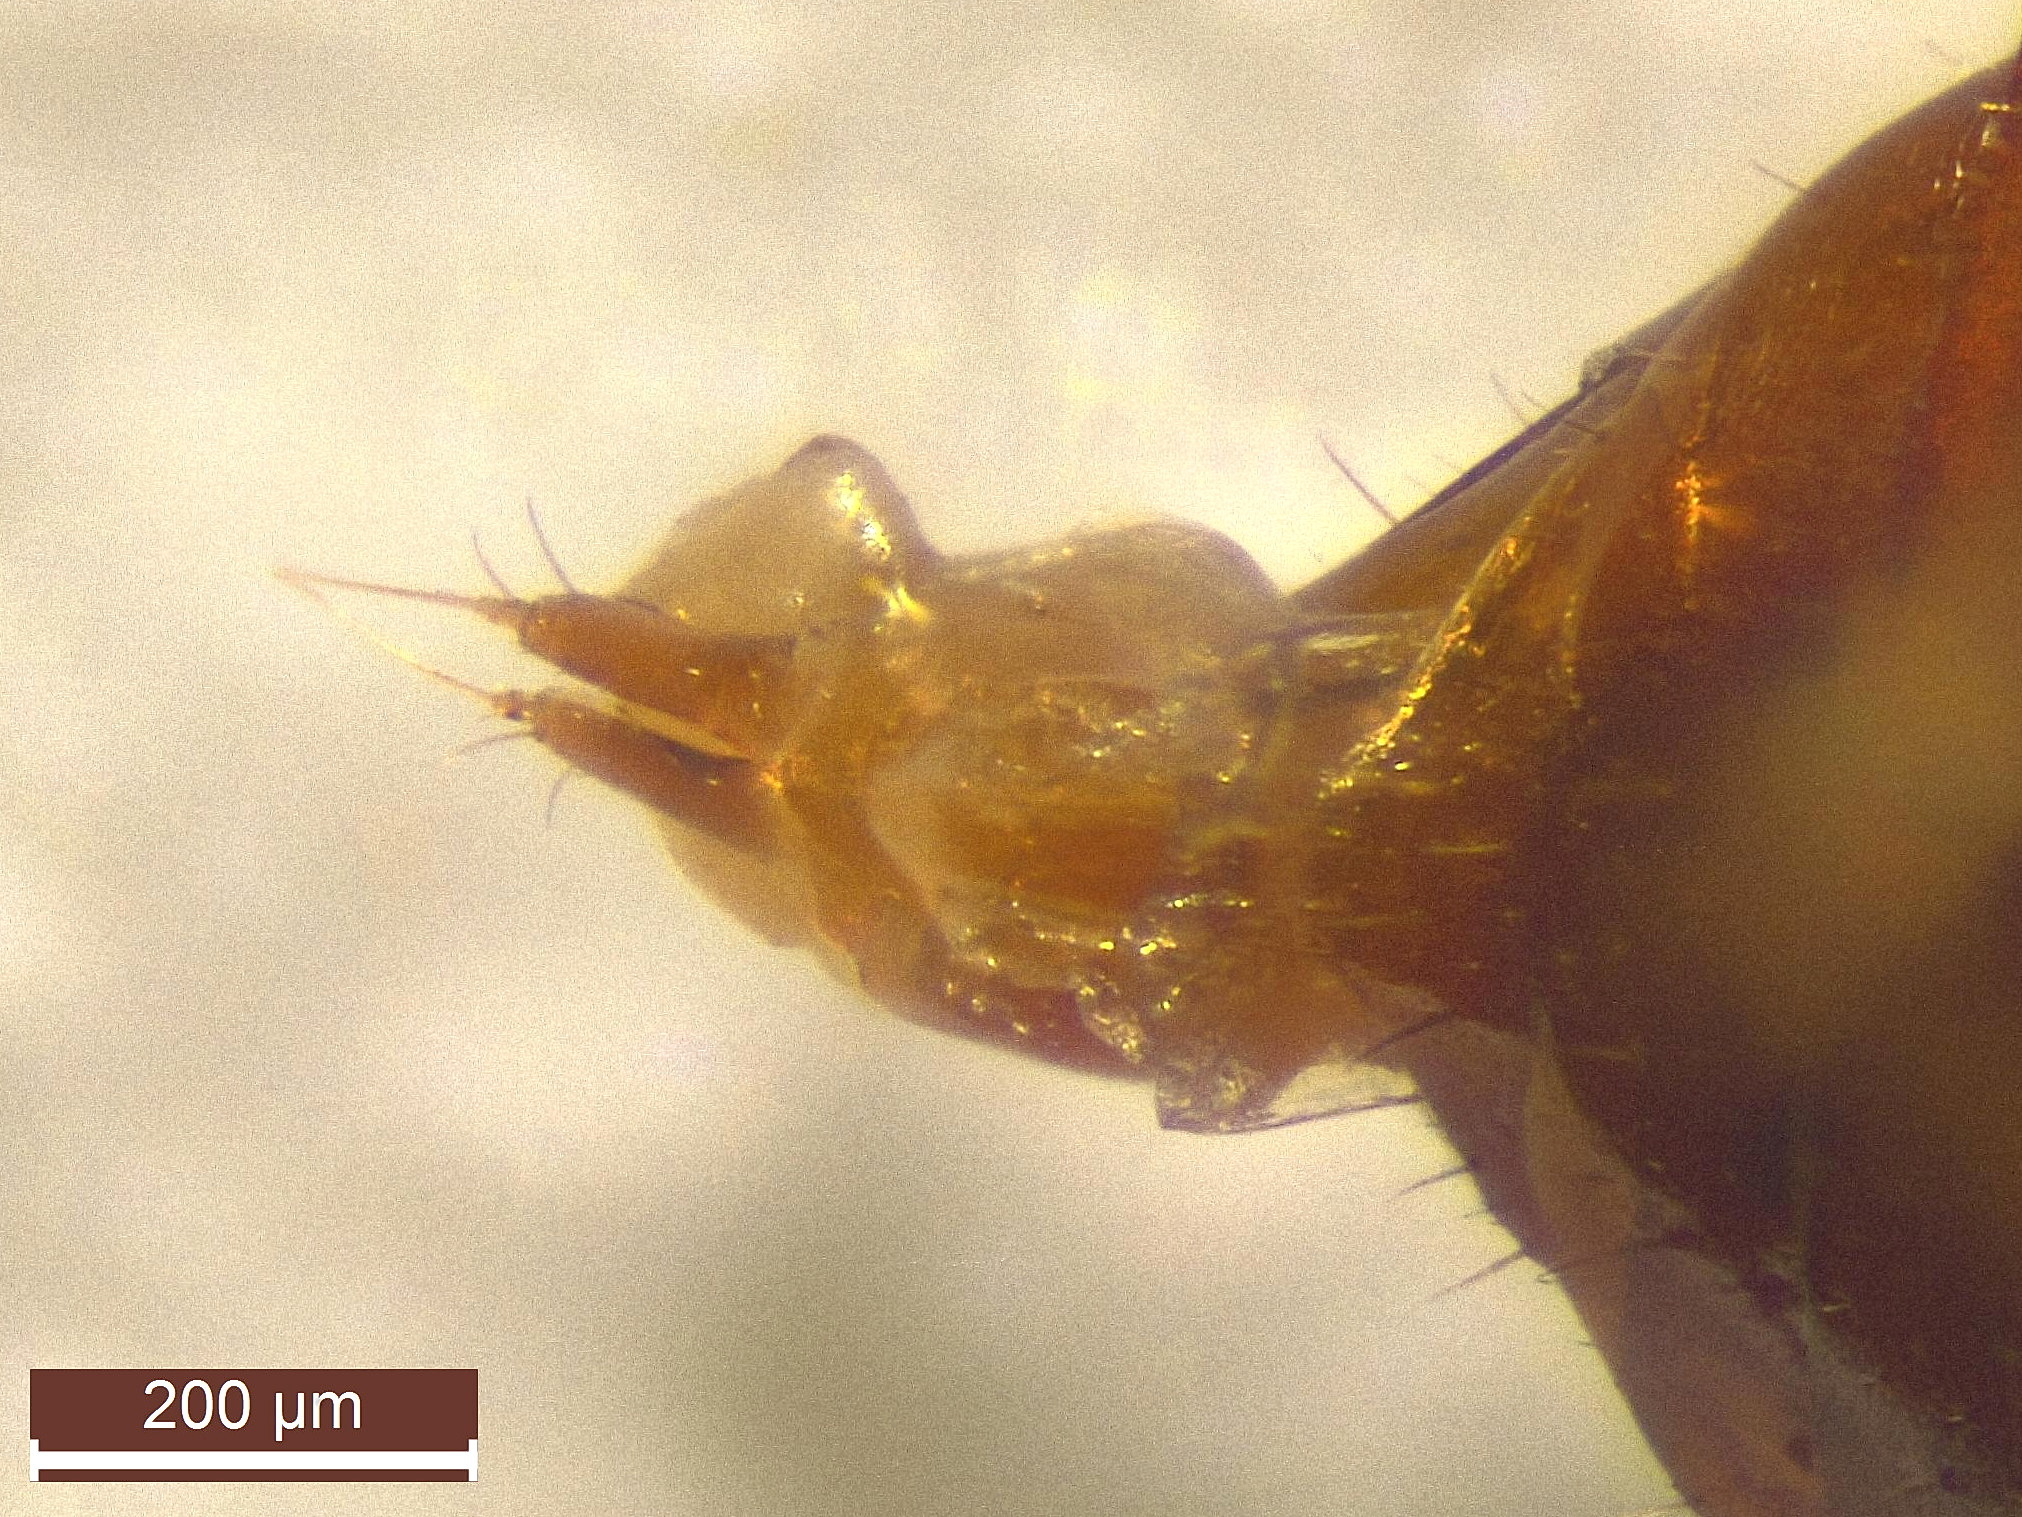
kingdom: Animalia
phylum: Arthropoda
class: Insecta
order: Coleoptera
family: Staphylinidae
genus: Anthobium
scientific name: Anthobium unicolor
